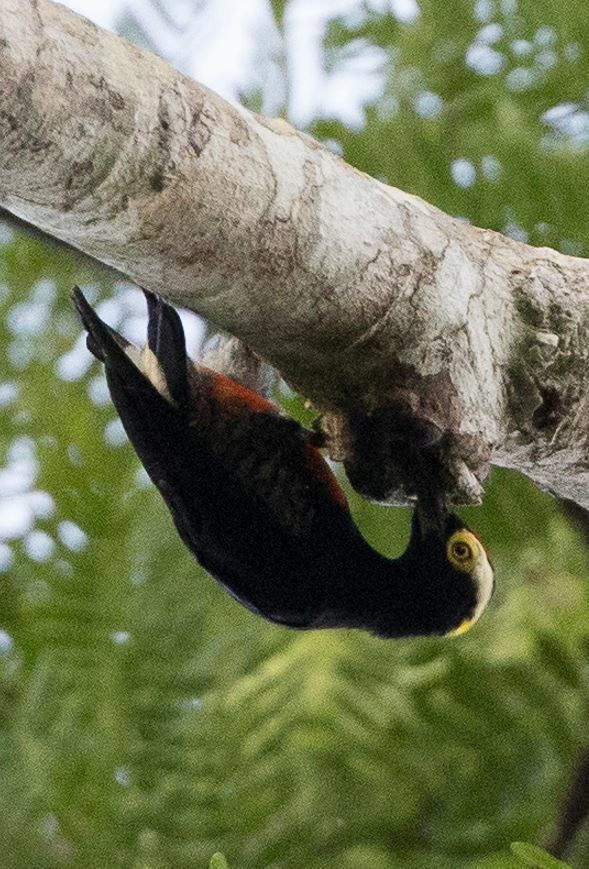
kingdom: Animalia
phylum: Chordata
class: Aves
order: Piciformes
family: Picidae
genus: Melanerpes
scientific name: Melanerpes cruentatus
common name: Yellow-tufted woodpecker
